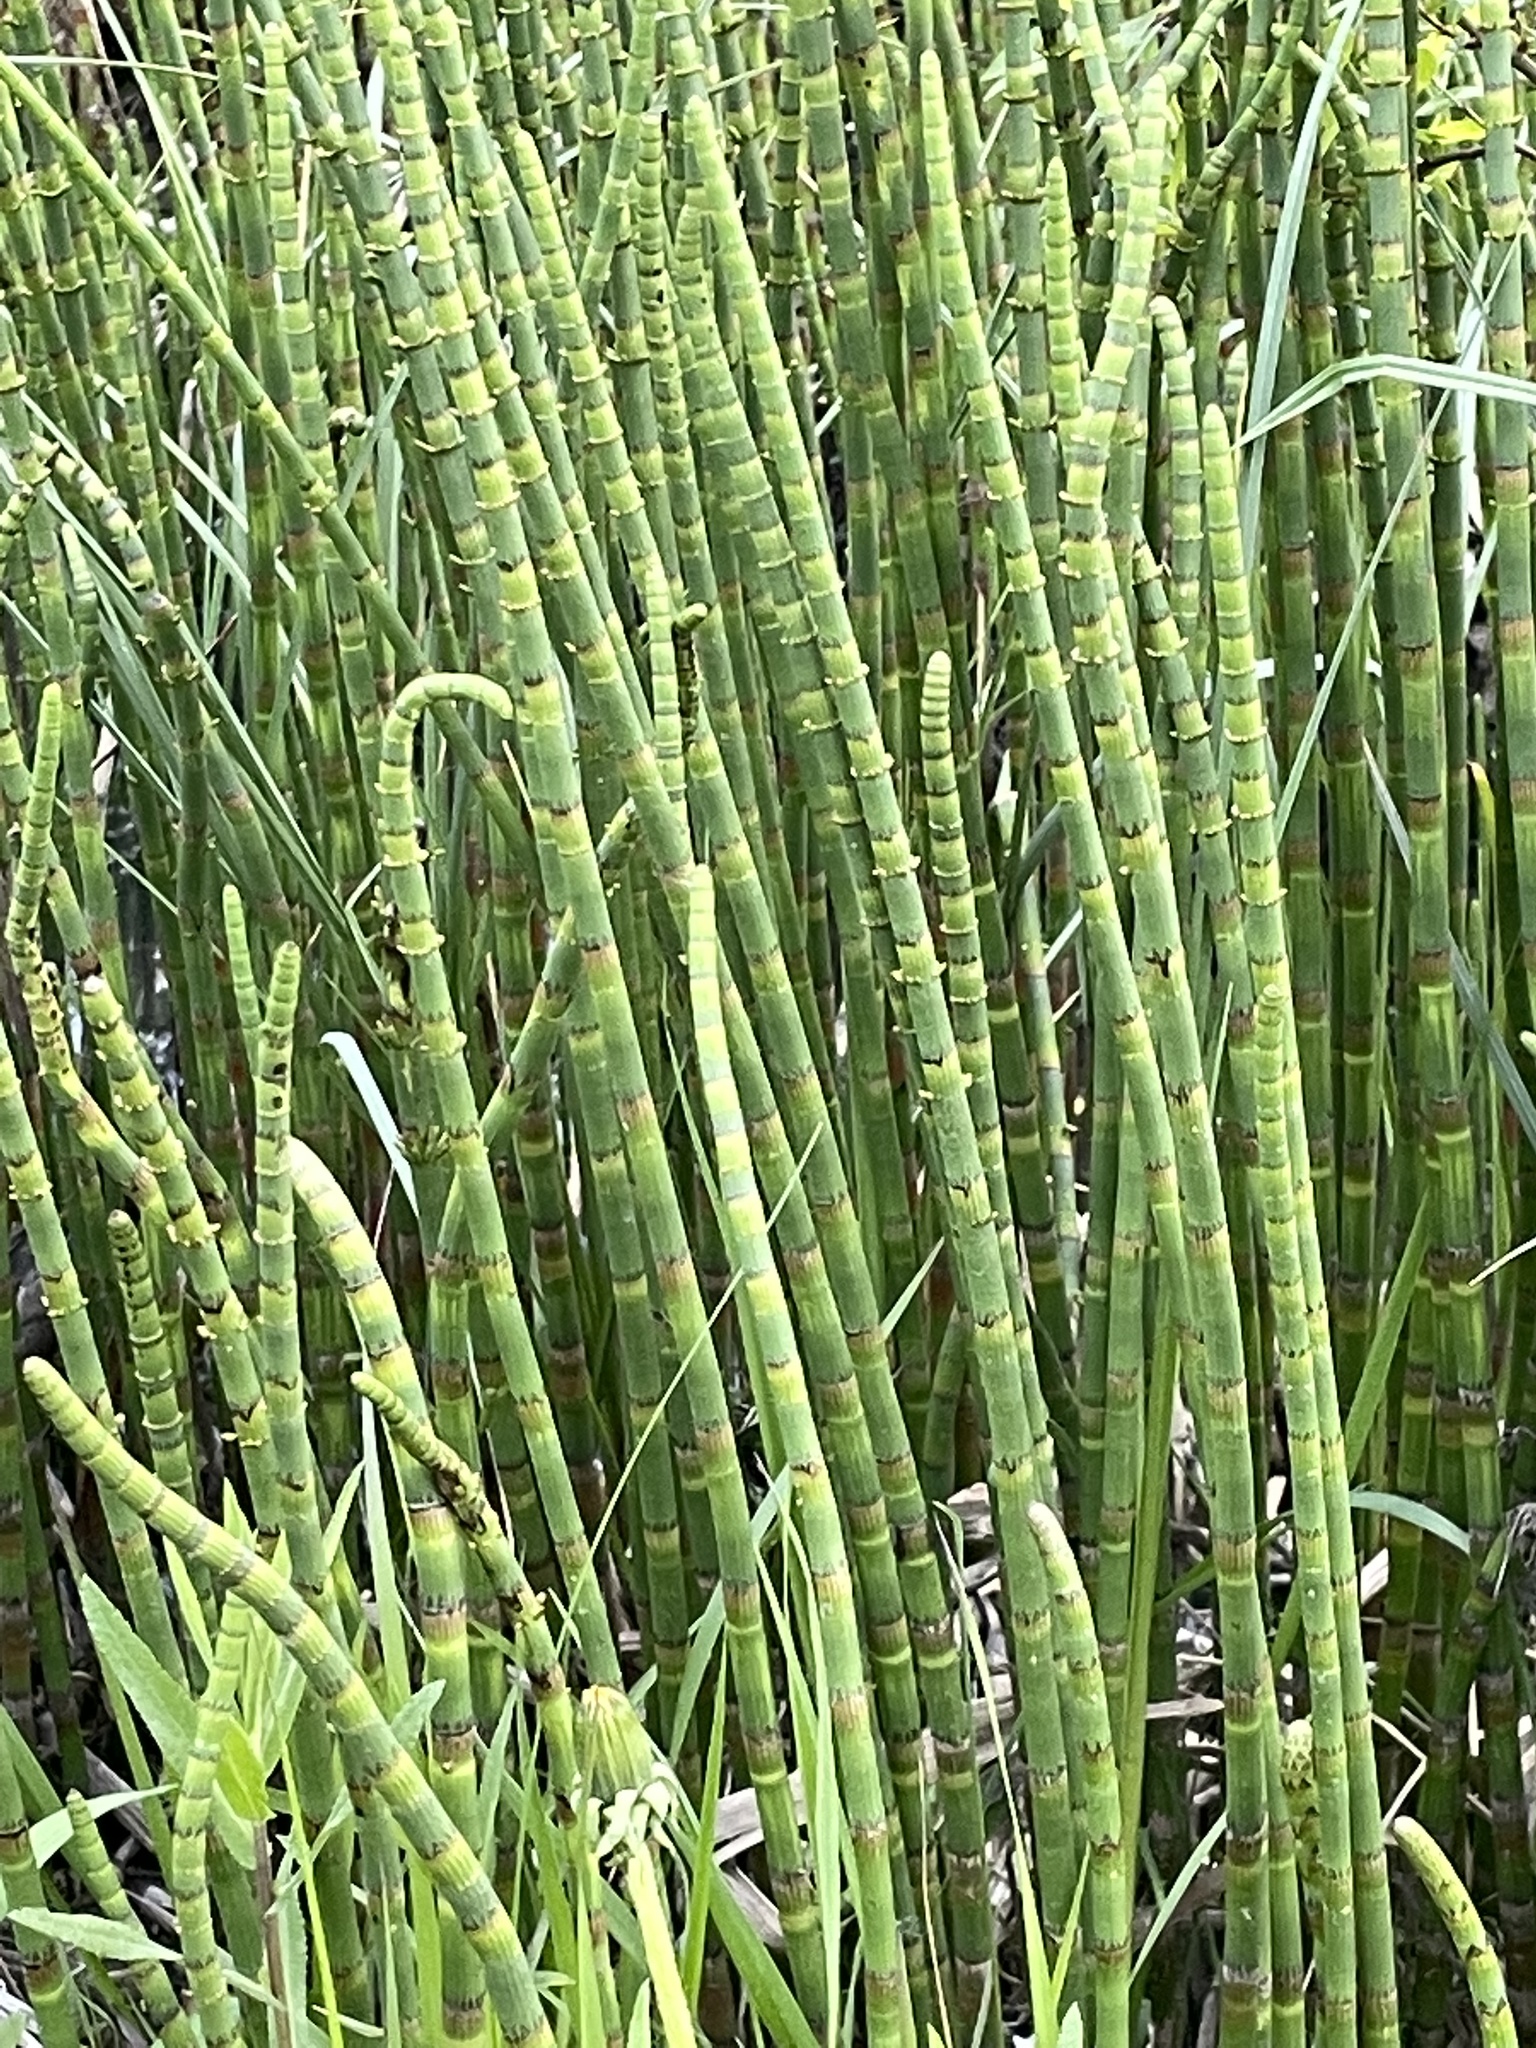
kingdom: Plantae
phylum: Tracheophyta
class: Polypodiopsida
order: Equisetales
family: Equisetaceae
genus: Equisetum
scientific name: Equisetum fluviatile
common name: Water horsetail
